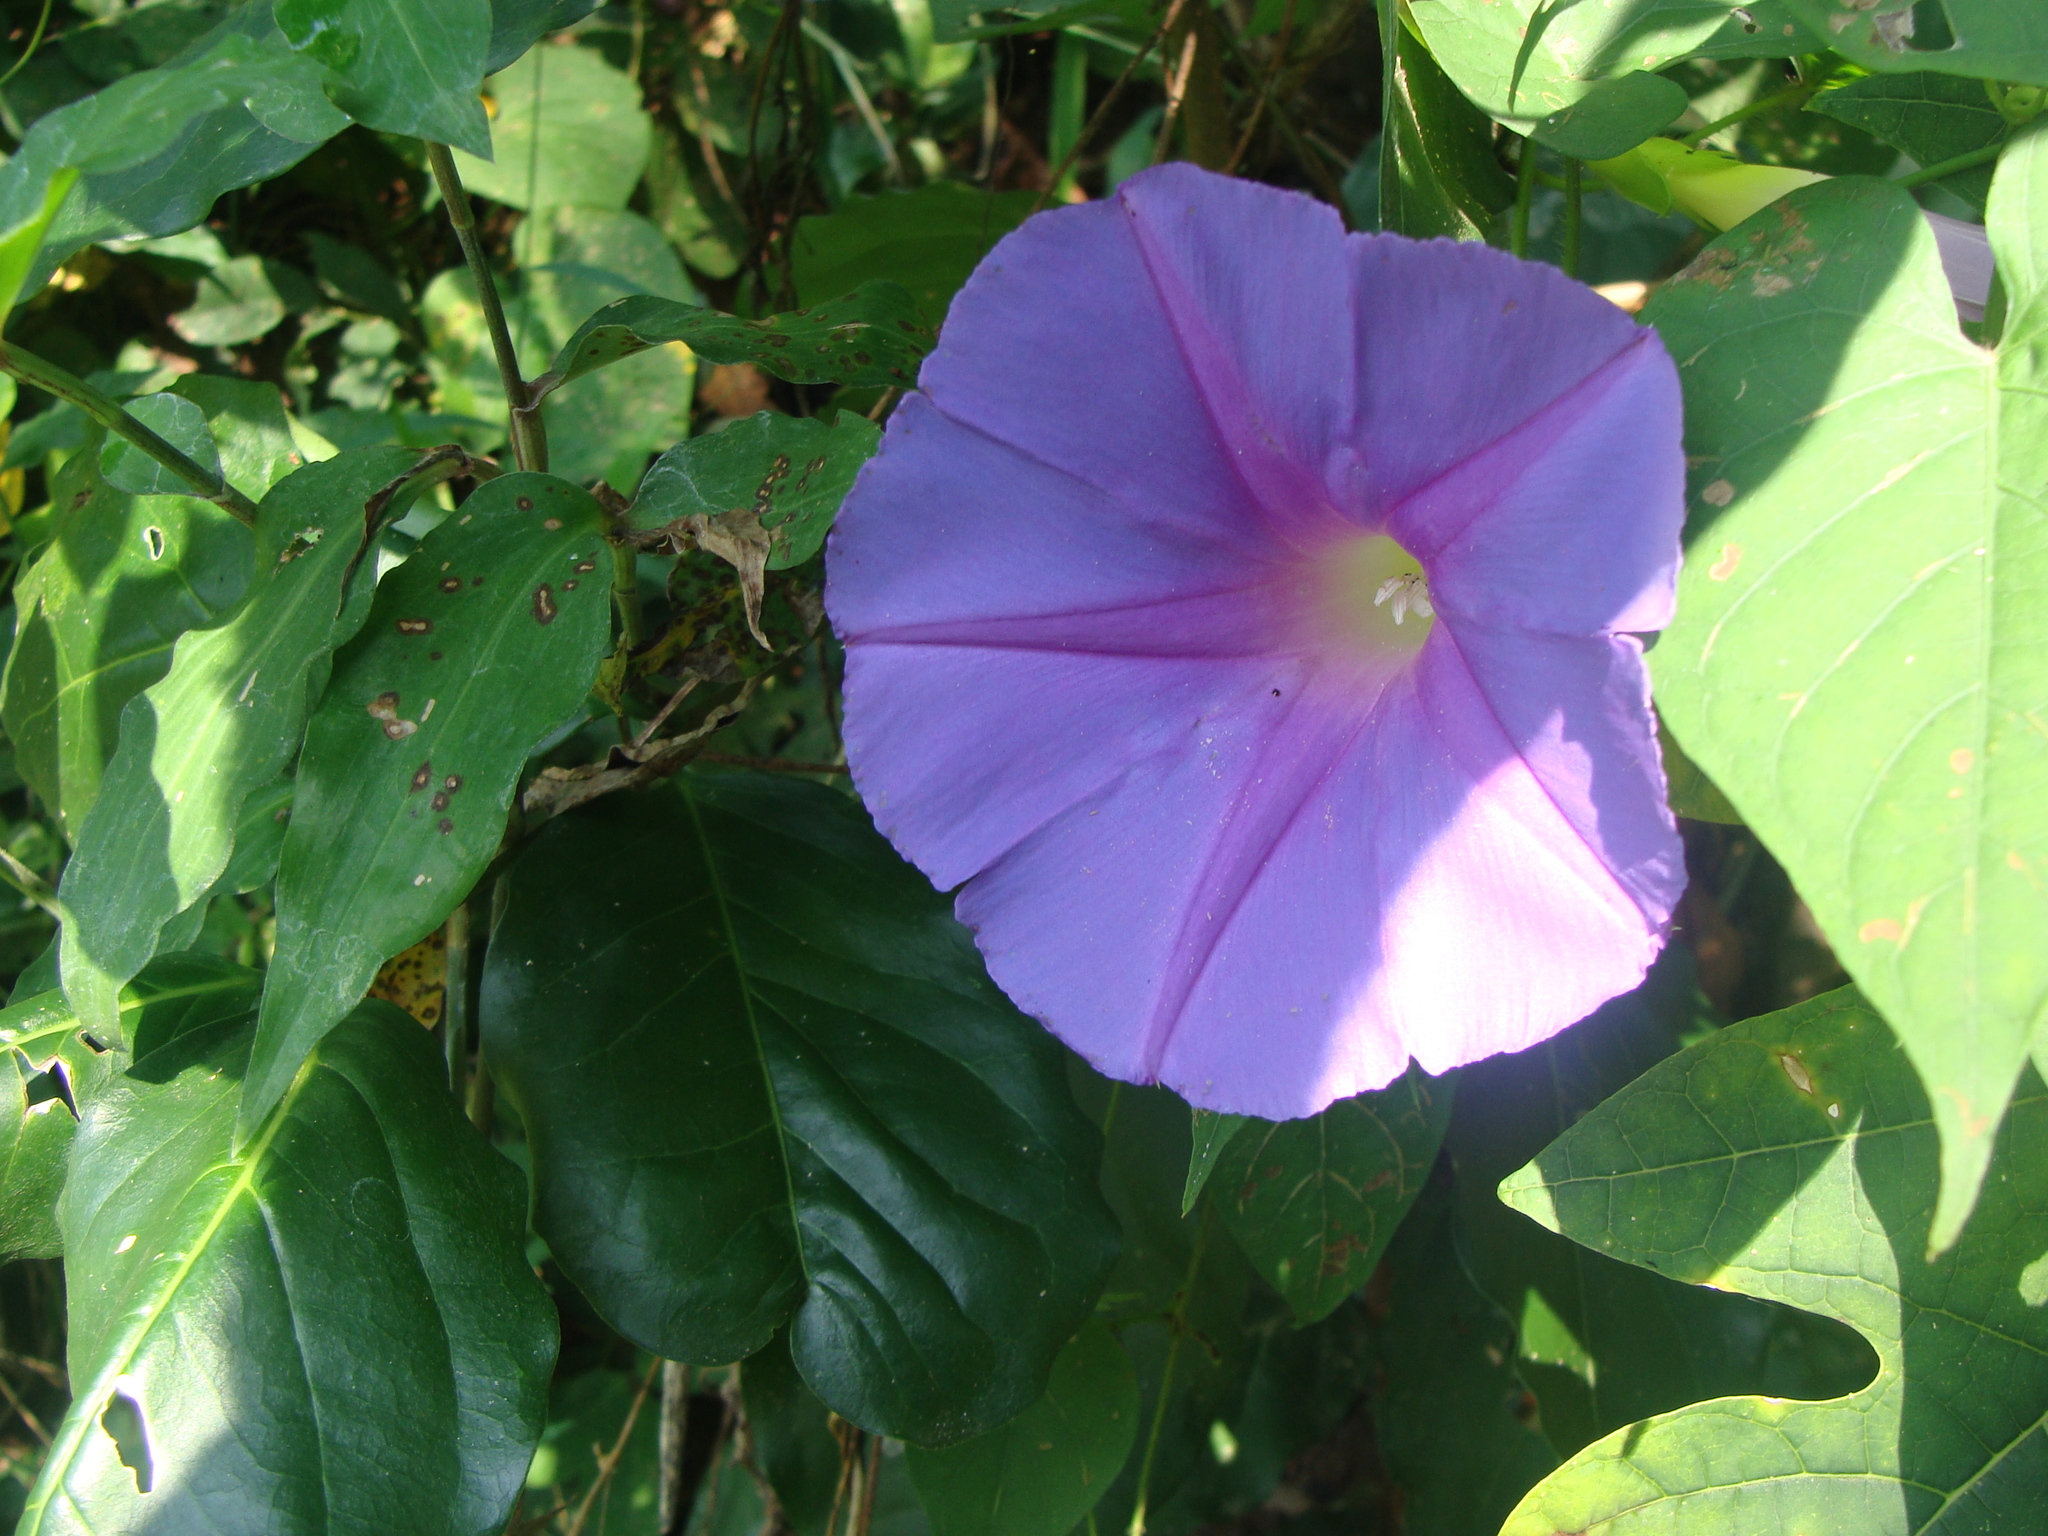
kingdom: Plantae
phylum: Tracheophyta
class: Magnoliopsida
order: Solanales
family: Convolvulaceae
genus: Ipomoea
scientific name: Ipomoea mitchelliae
